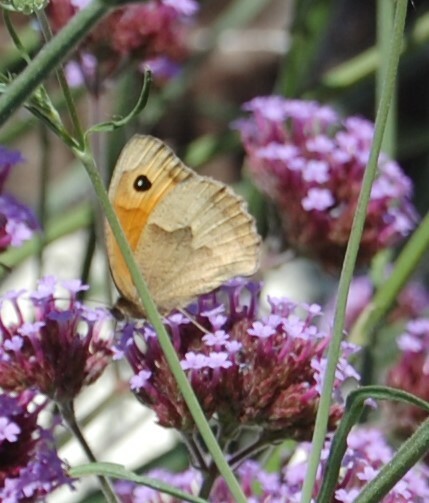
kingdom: Animalia
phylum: Arthropoda
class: Insecta
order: Lepidoptera
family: Nymphalidae
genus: Maniola
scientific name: Maniola jurtina
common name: Meadow brown
